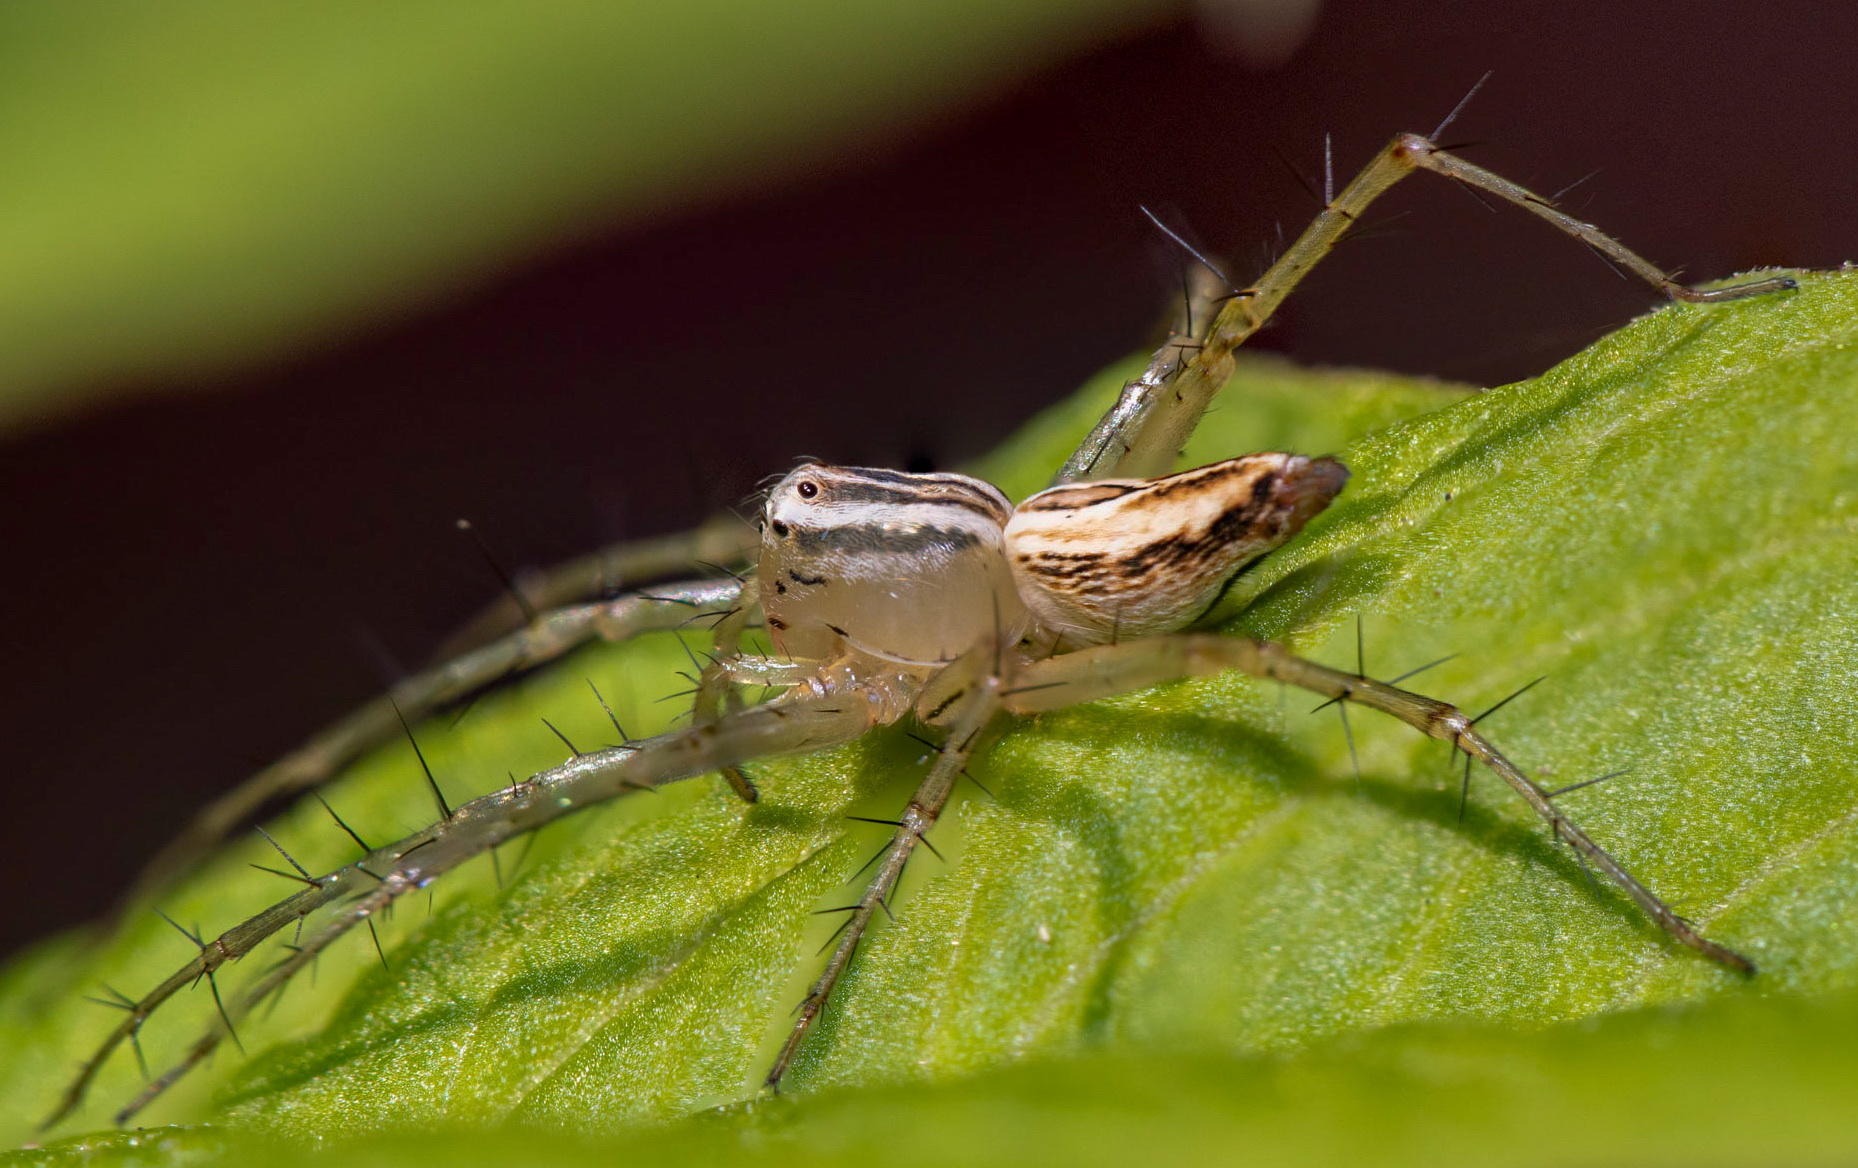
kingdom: Animalia
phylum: Arthropoda
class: Arachnida
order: Araneae
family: Oxyopidae
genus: Oxyopes
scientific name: Oxyopes salticus
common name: Lynx spiders
